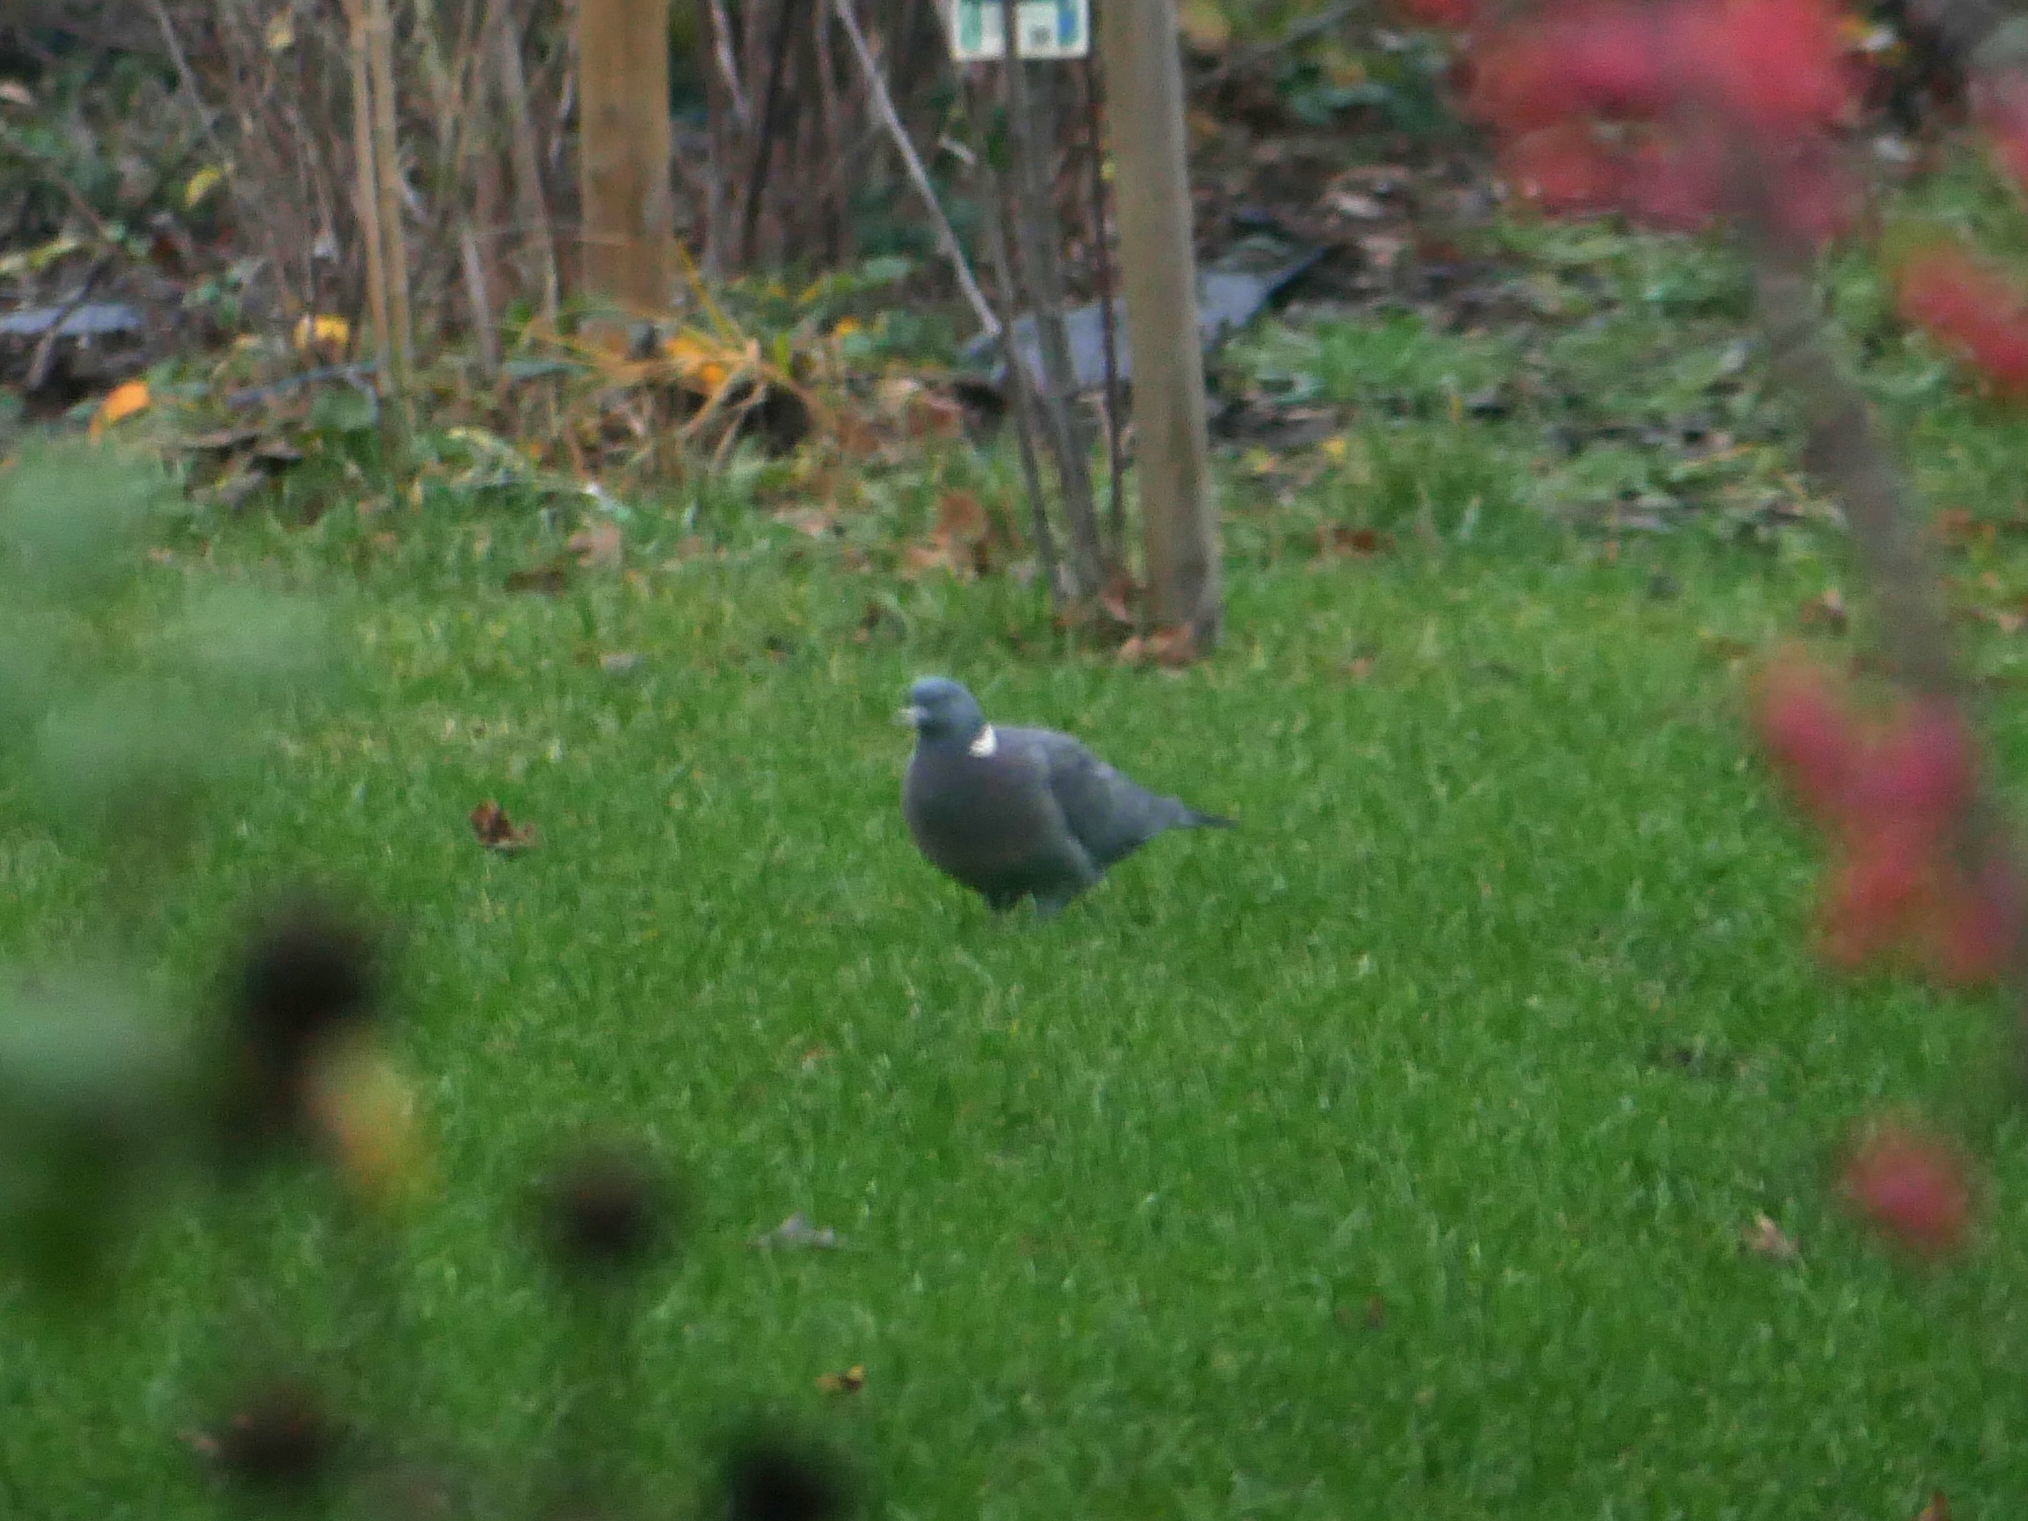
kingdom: Animalia
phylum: Chordata
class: Aves
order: Columbiformes
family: Columbidae
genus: Columba
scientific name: Columba palumbus
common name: Common wood pigeon
